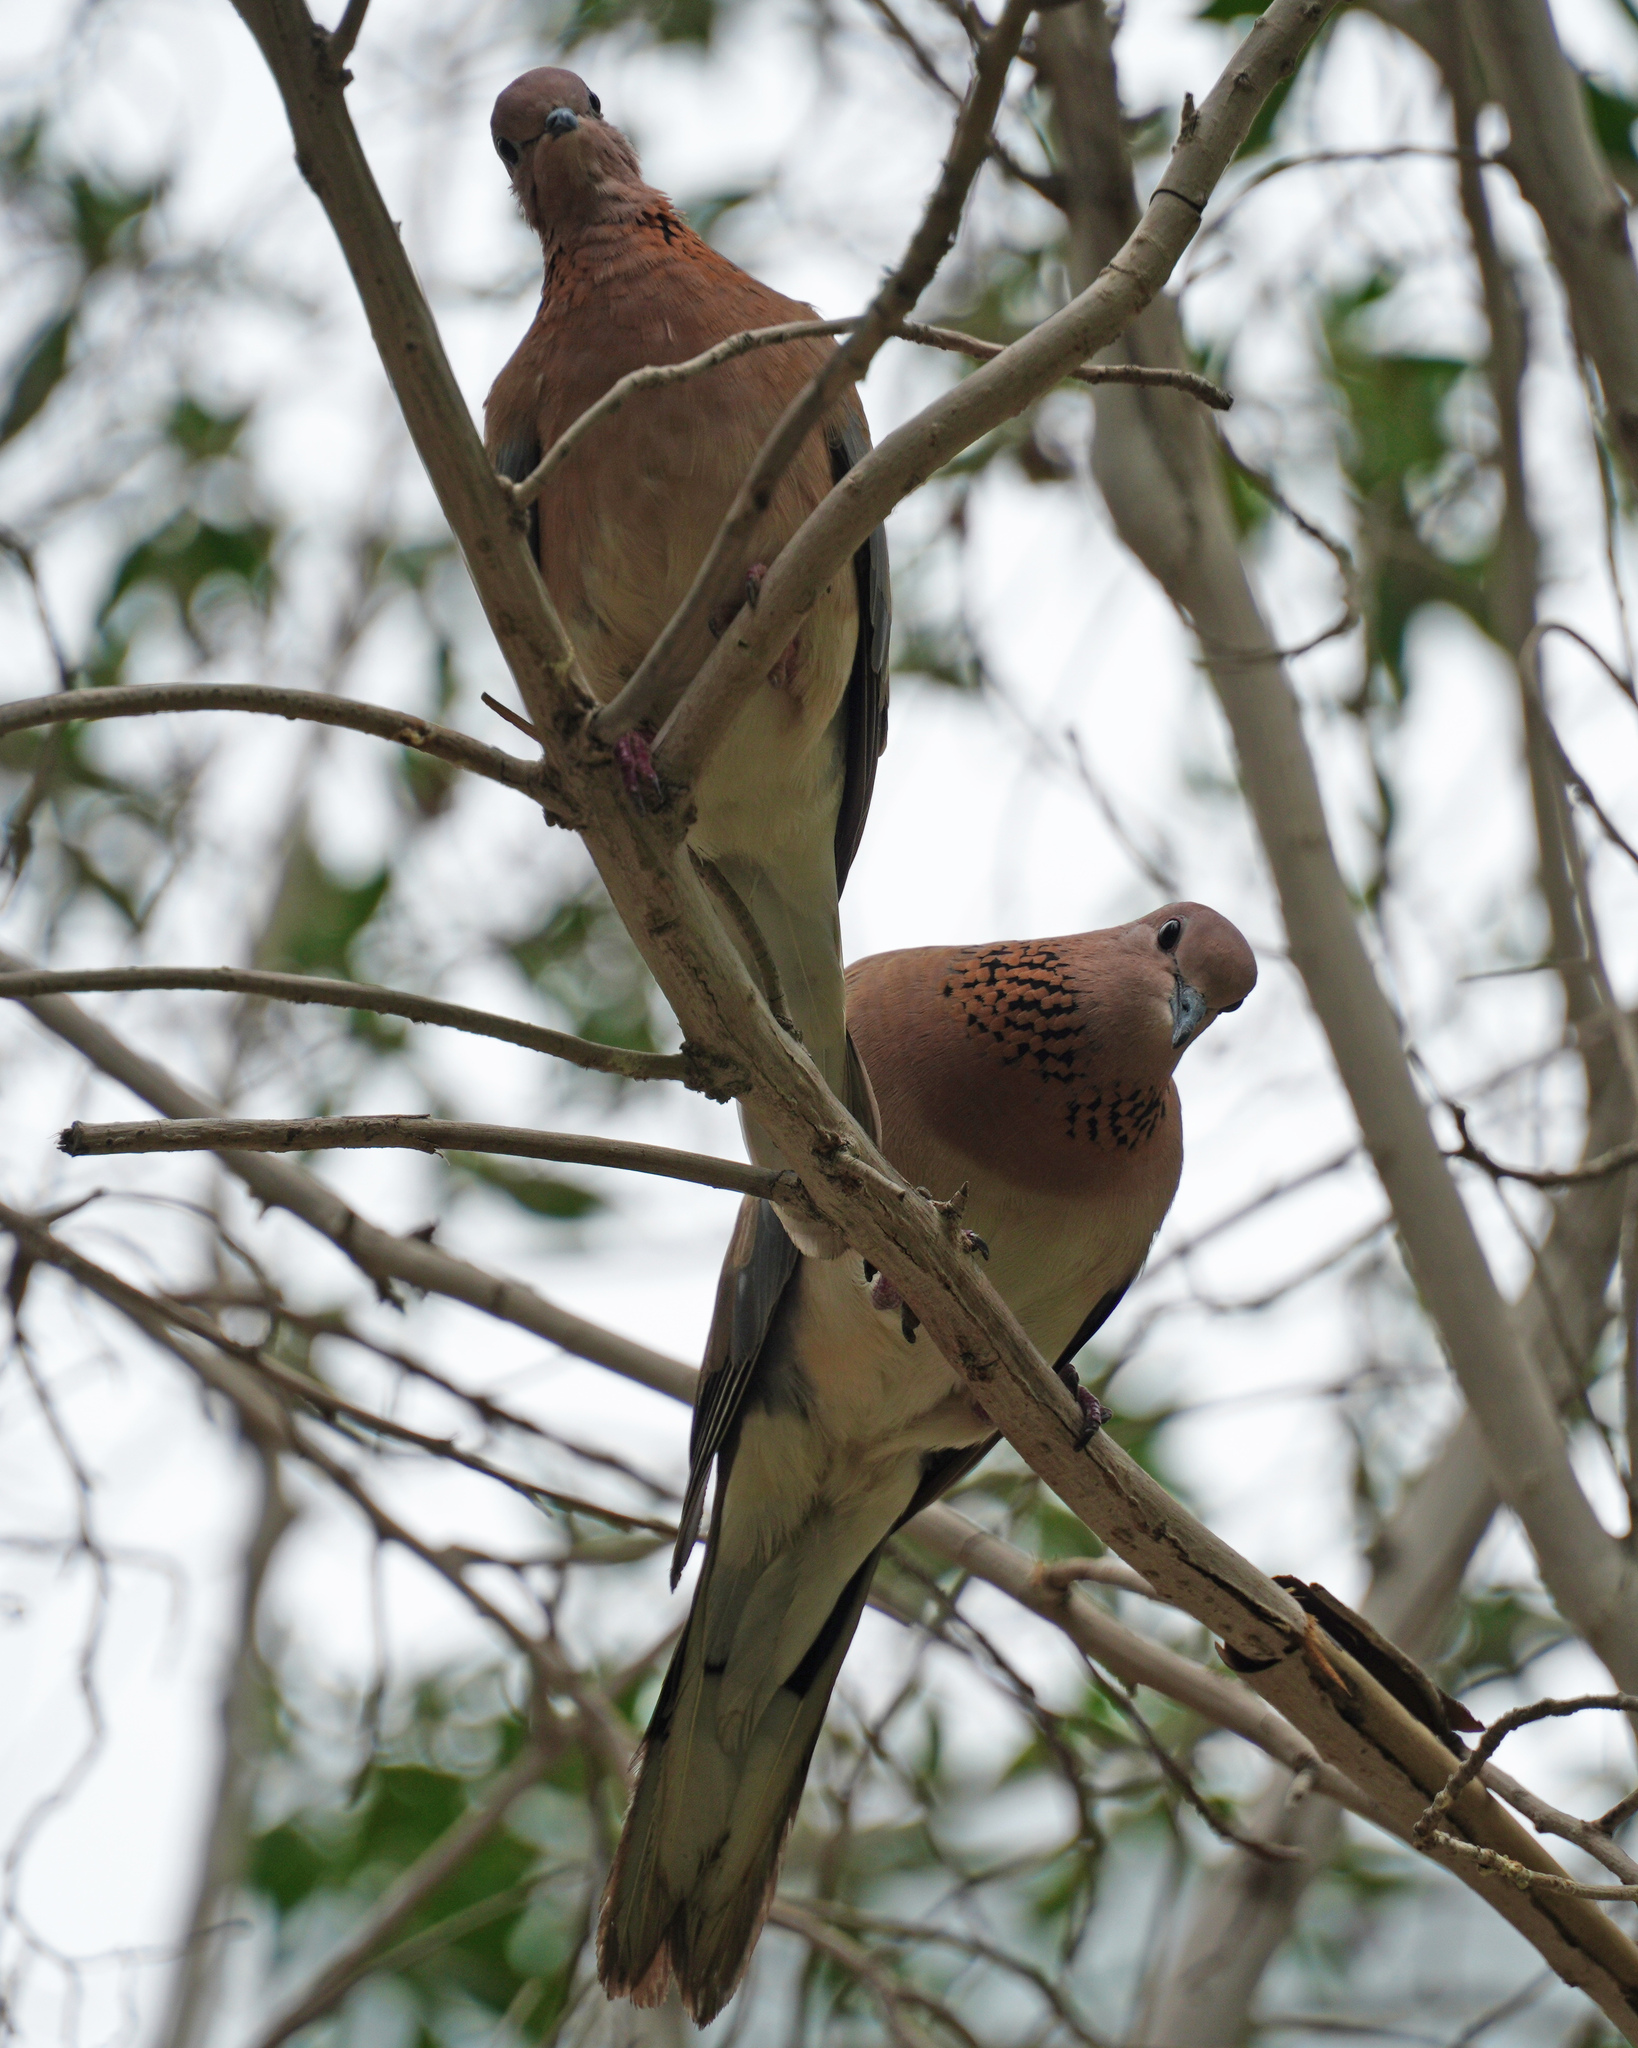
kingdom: Animalia
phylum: Chordata
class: Aves
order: Columbiformes
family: Columbidae
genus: Spilopelia
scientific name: Spilopelia senegalensis
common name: Laughing dove
